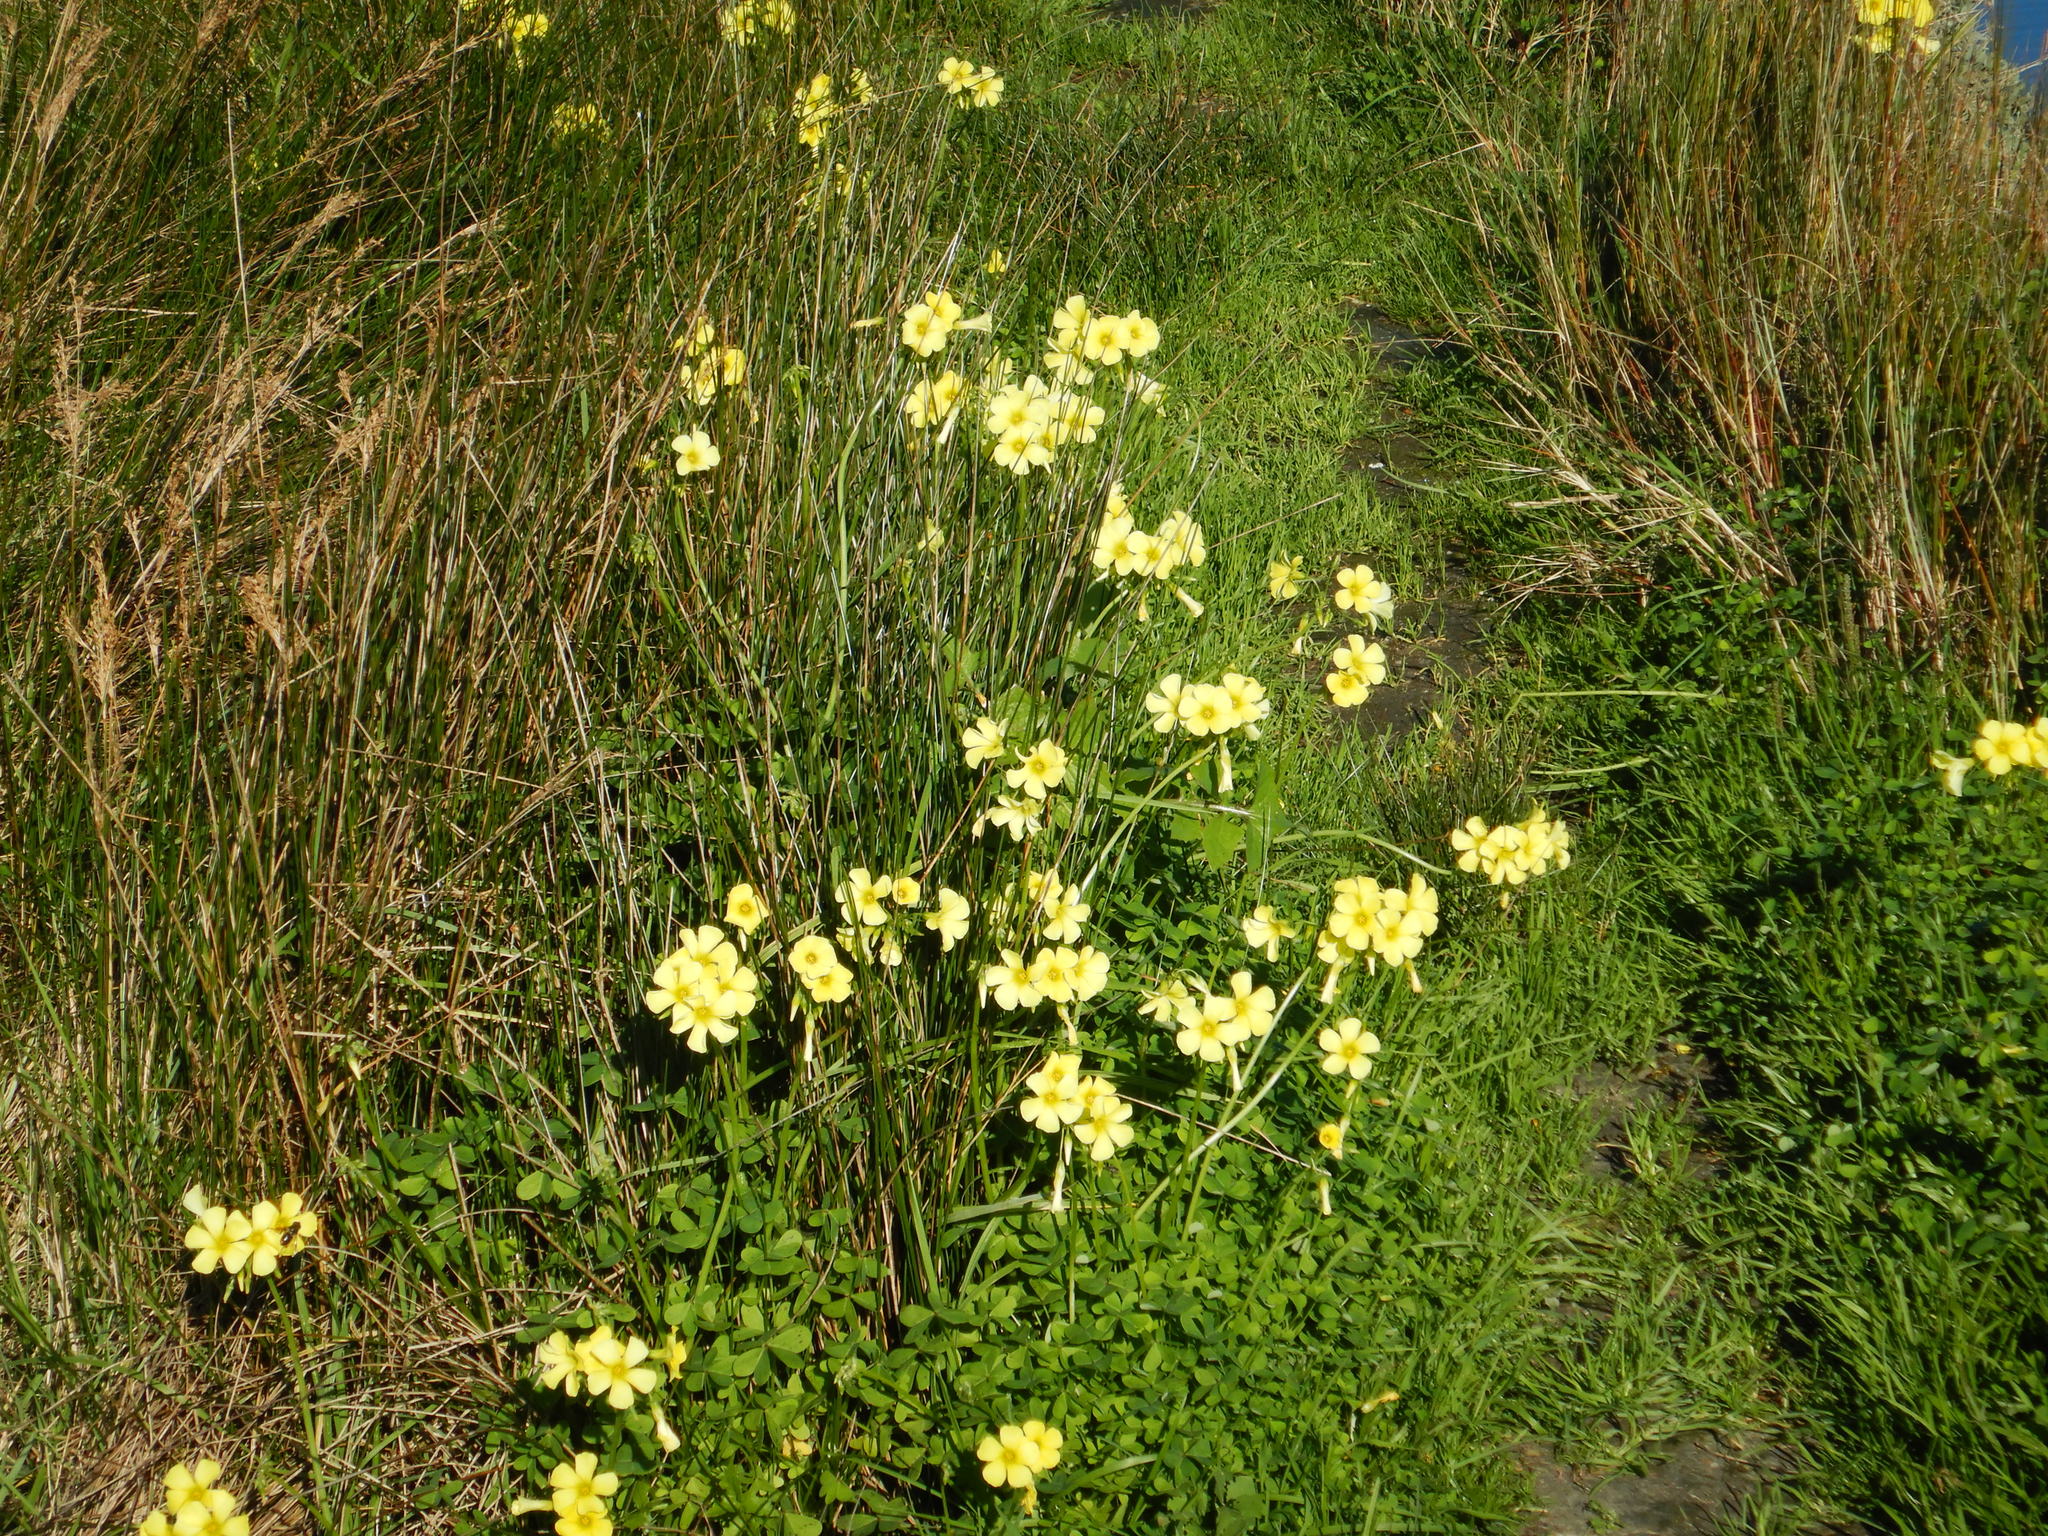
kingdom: Plantae
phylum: Tracheophyta
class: Magnoliopsida
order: Oxalidales
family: Oxalidaceae
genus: Oxalis
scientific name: Oxalis pes-caprae
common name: Bermuda-buttercup
